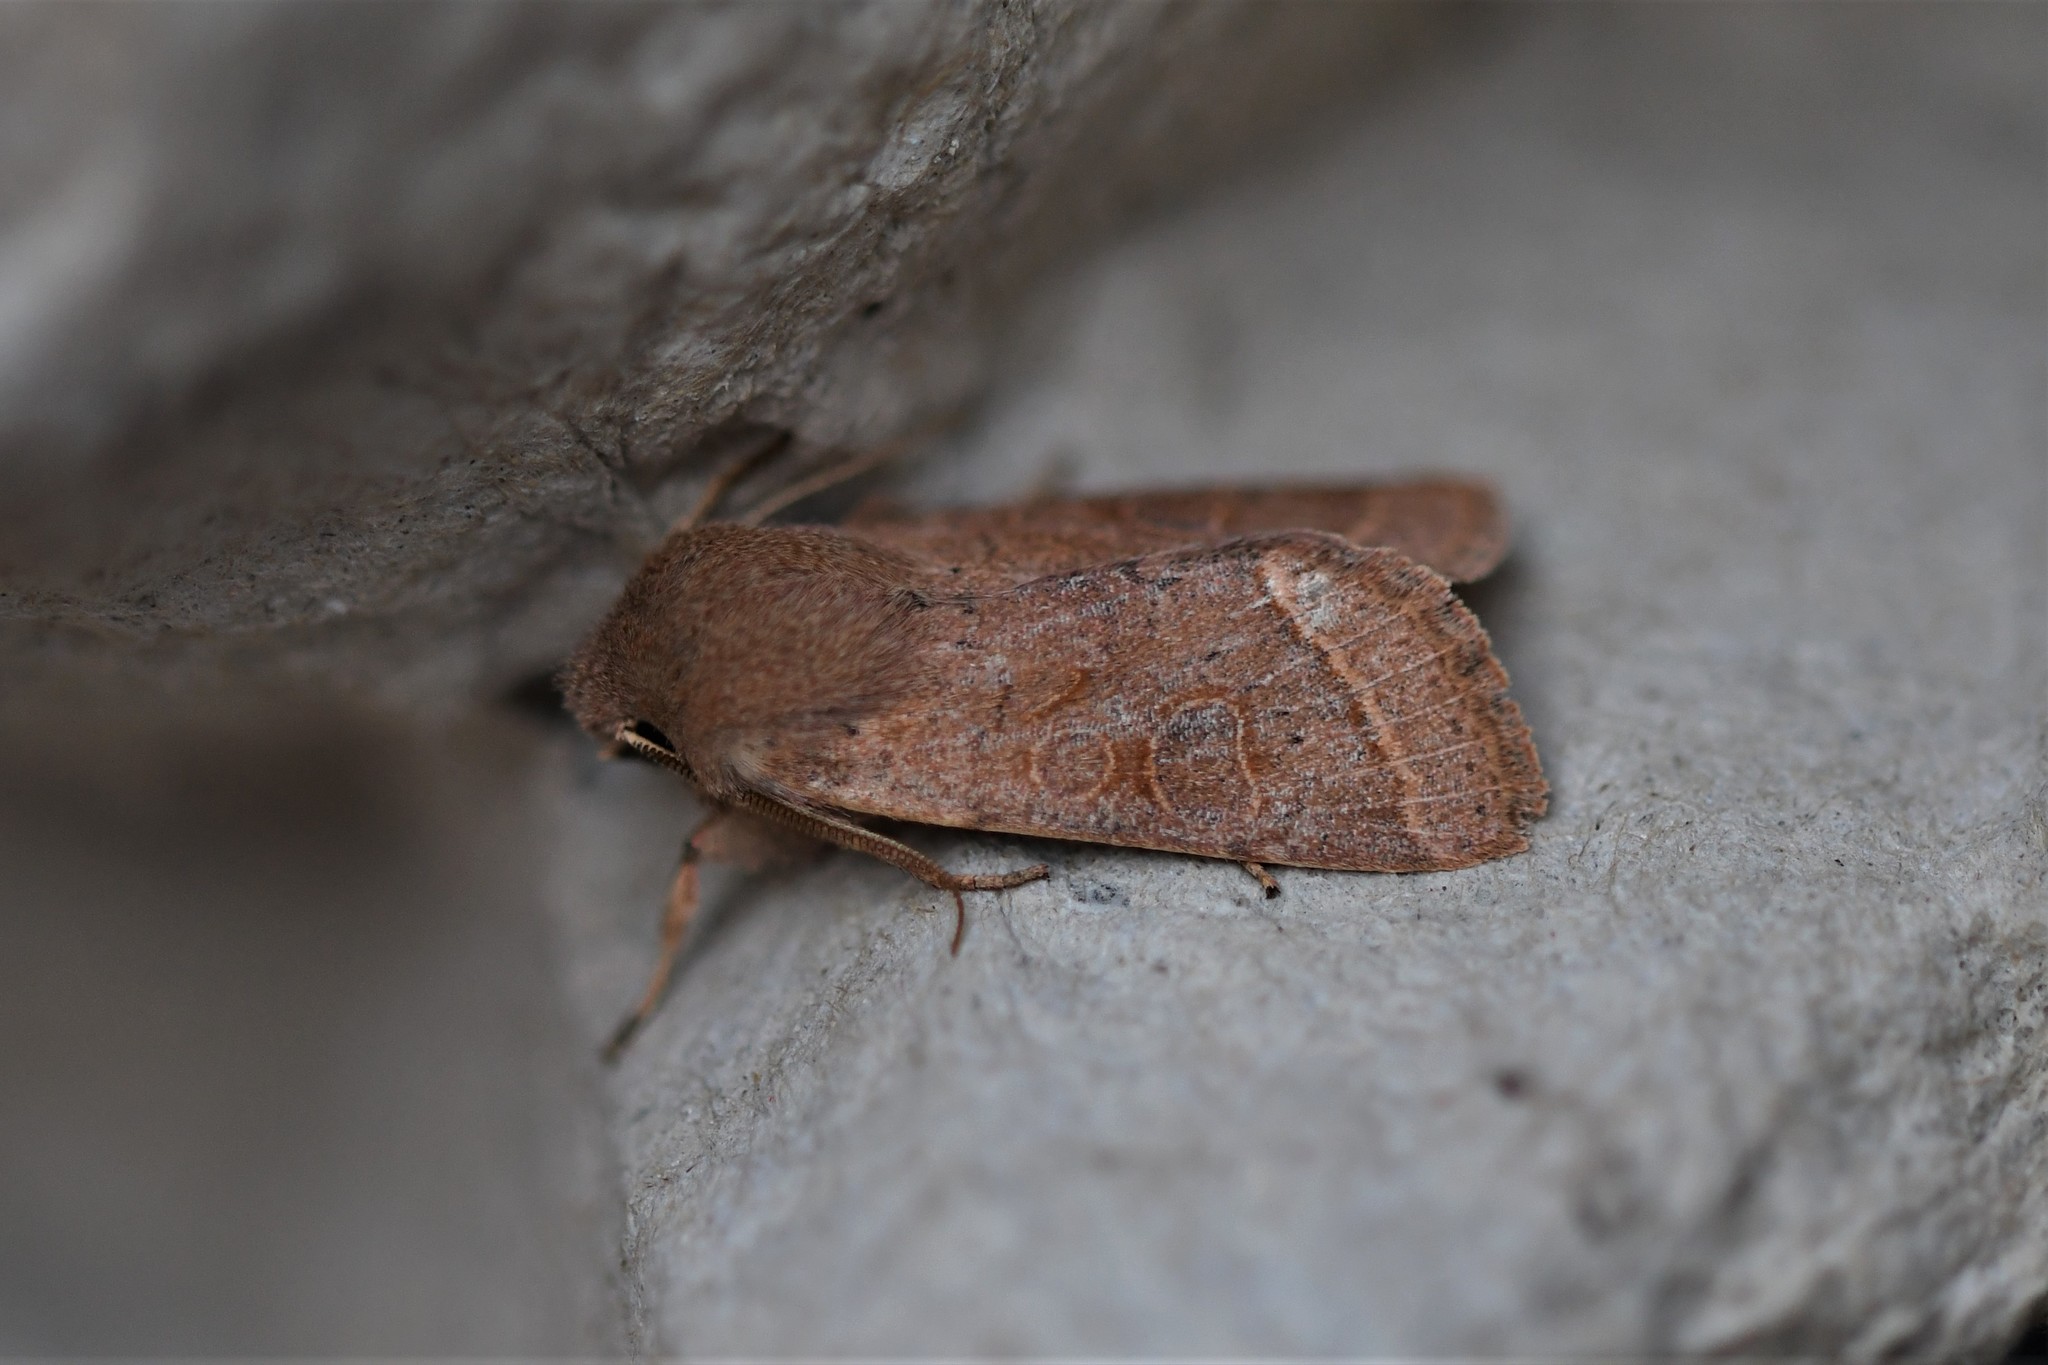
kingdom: Animalia
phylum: Arthropoda
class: Insecta
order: Lepidoptera
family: Noctuidae
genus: Orthosia
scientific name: Orthosia cerasi
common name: Common quaker
